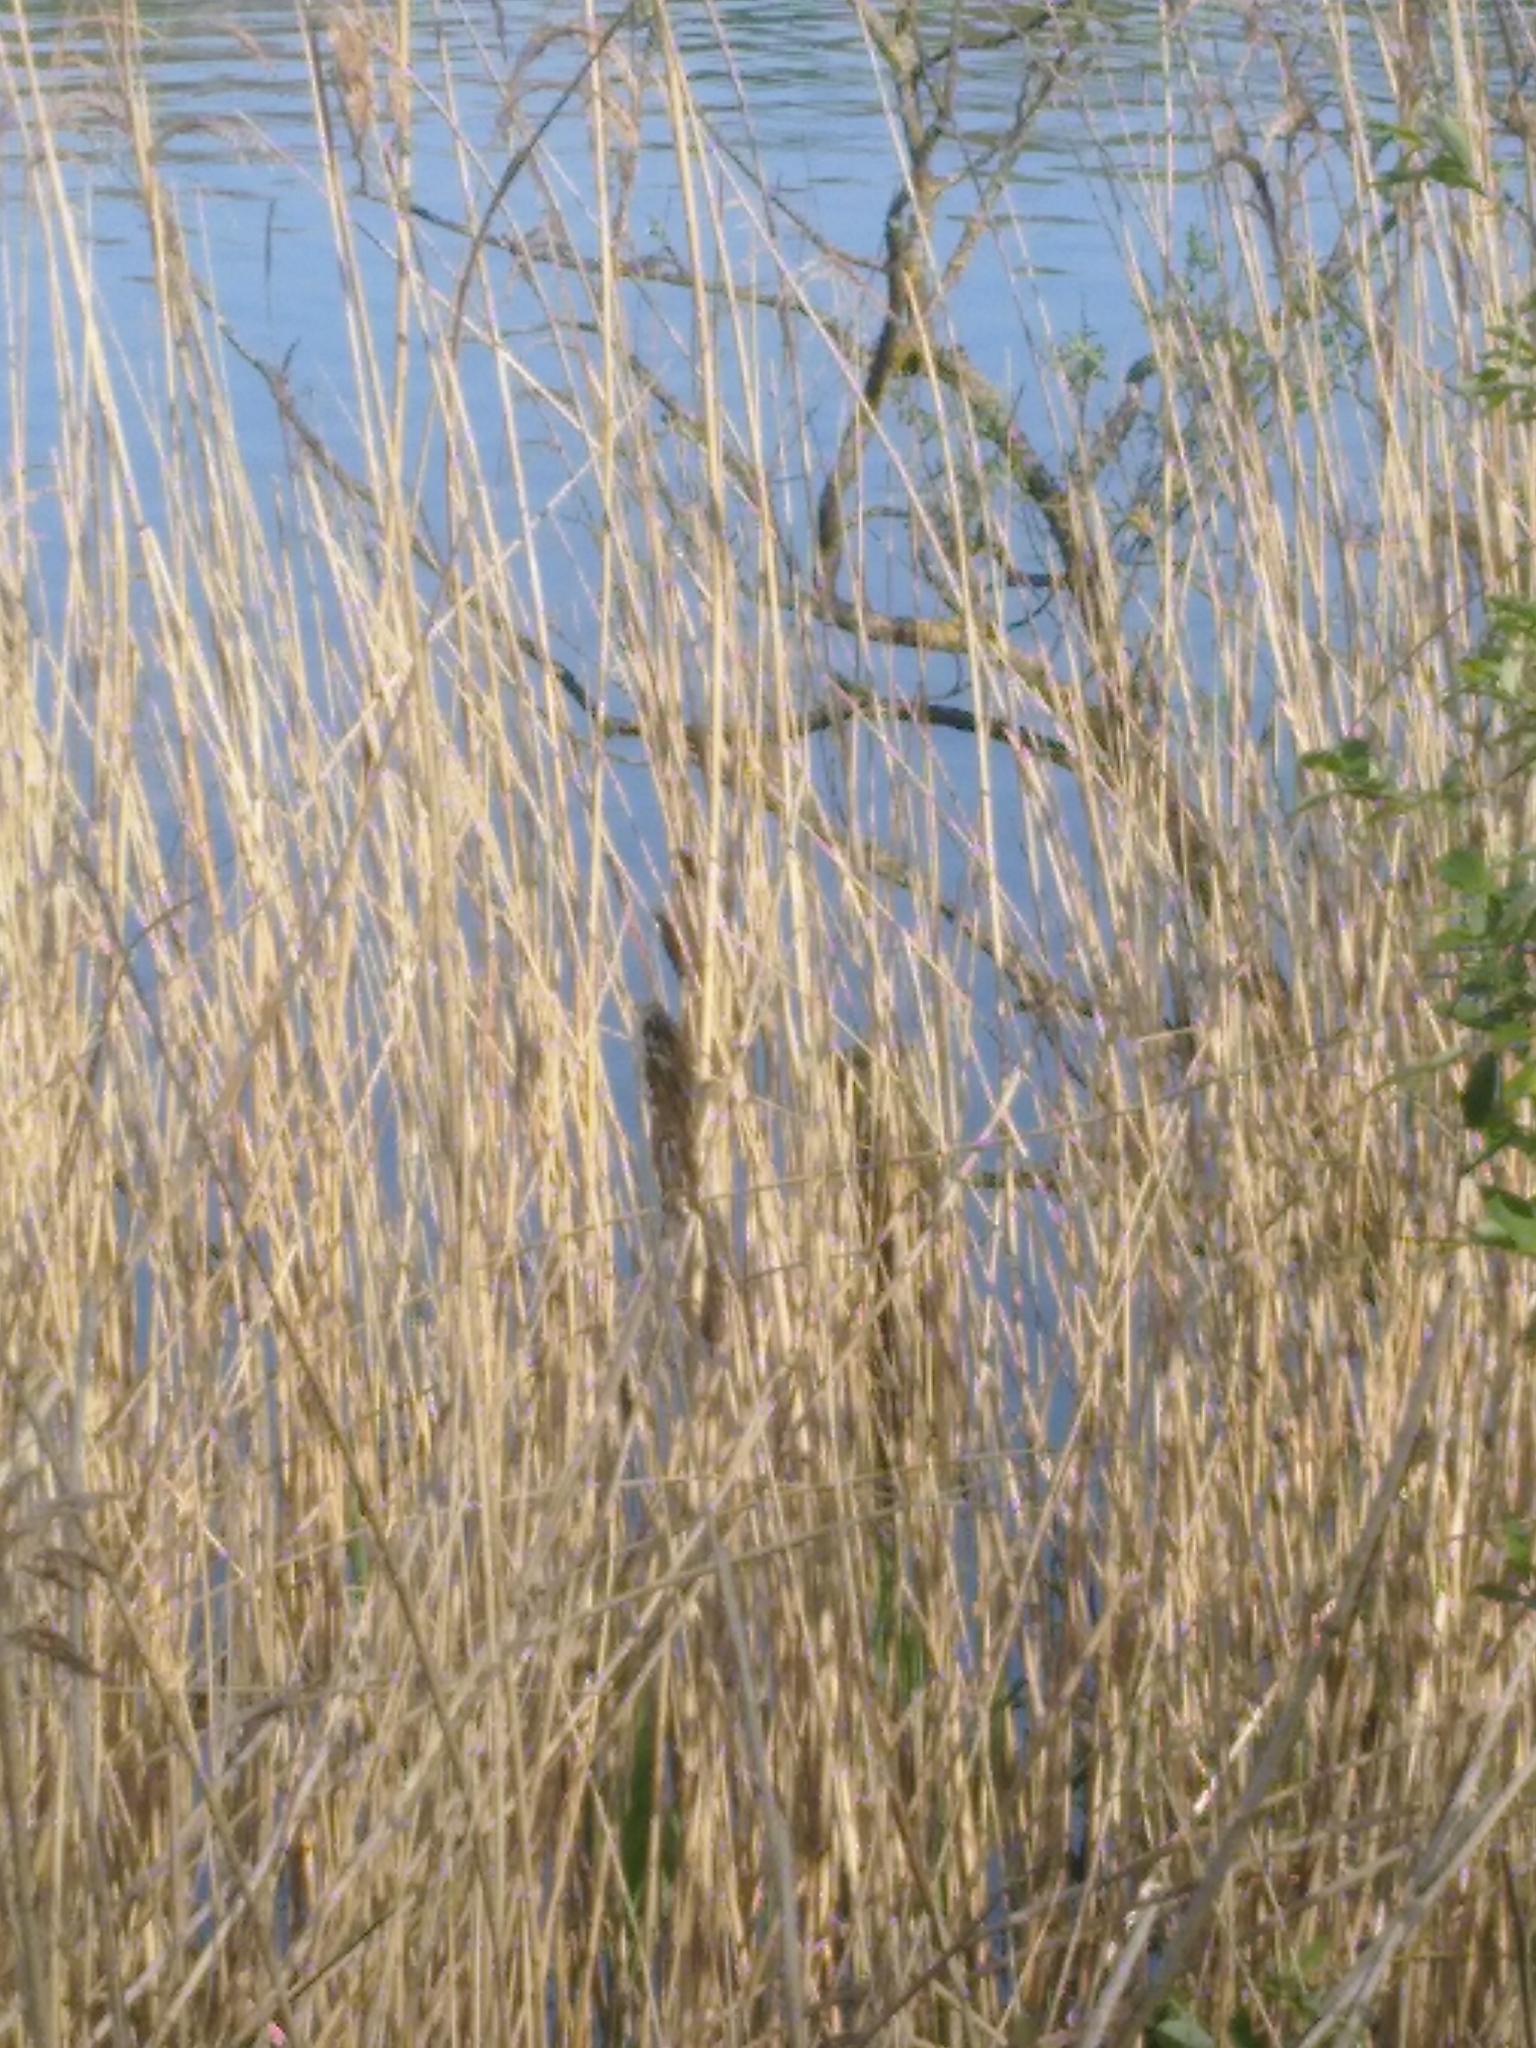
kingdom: Animalia
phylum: Chordata
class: Aves
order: Passeriformes
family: Acrocephalidae
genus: Acrocephalus
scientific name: Acrocephalus scirpaceus
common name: Eurasian reed warbler
